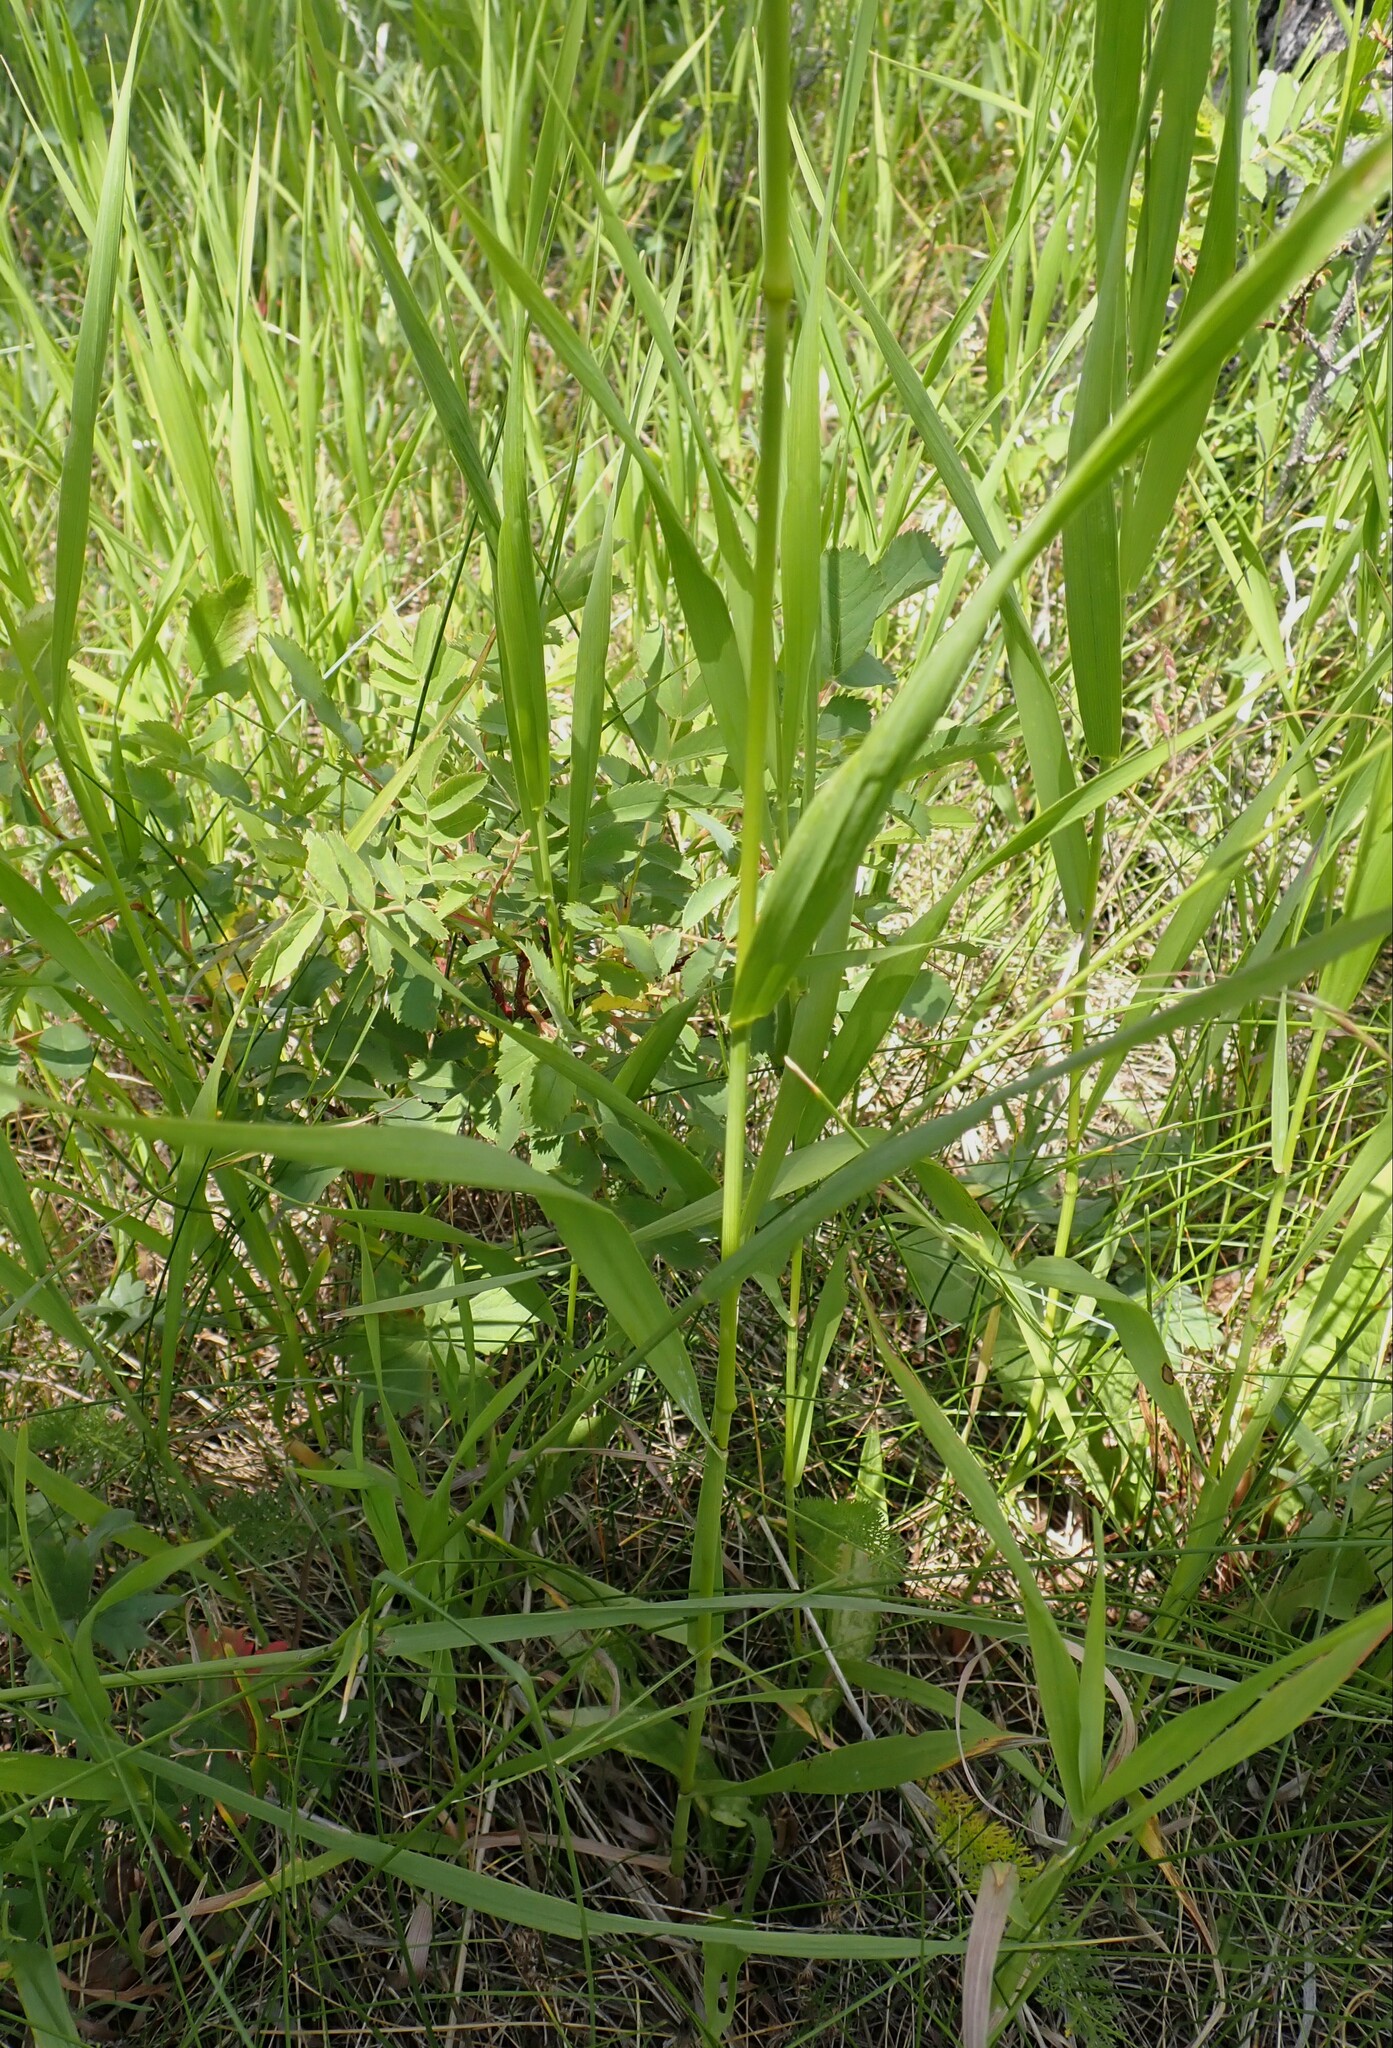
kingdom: Plantae
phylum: Tracheophyta
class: Liliopsida
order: Poales
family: Poaceae
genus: Bromus
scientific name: Bromus inermis
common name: Smooth brome
